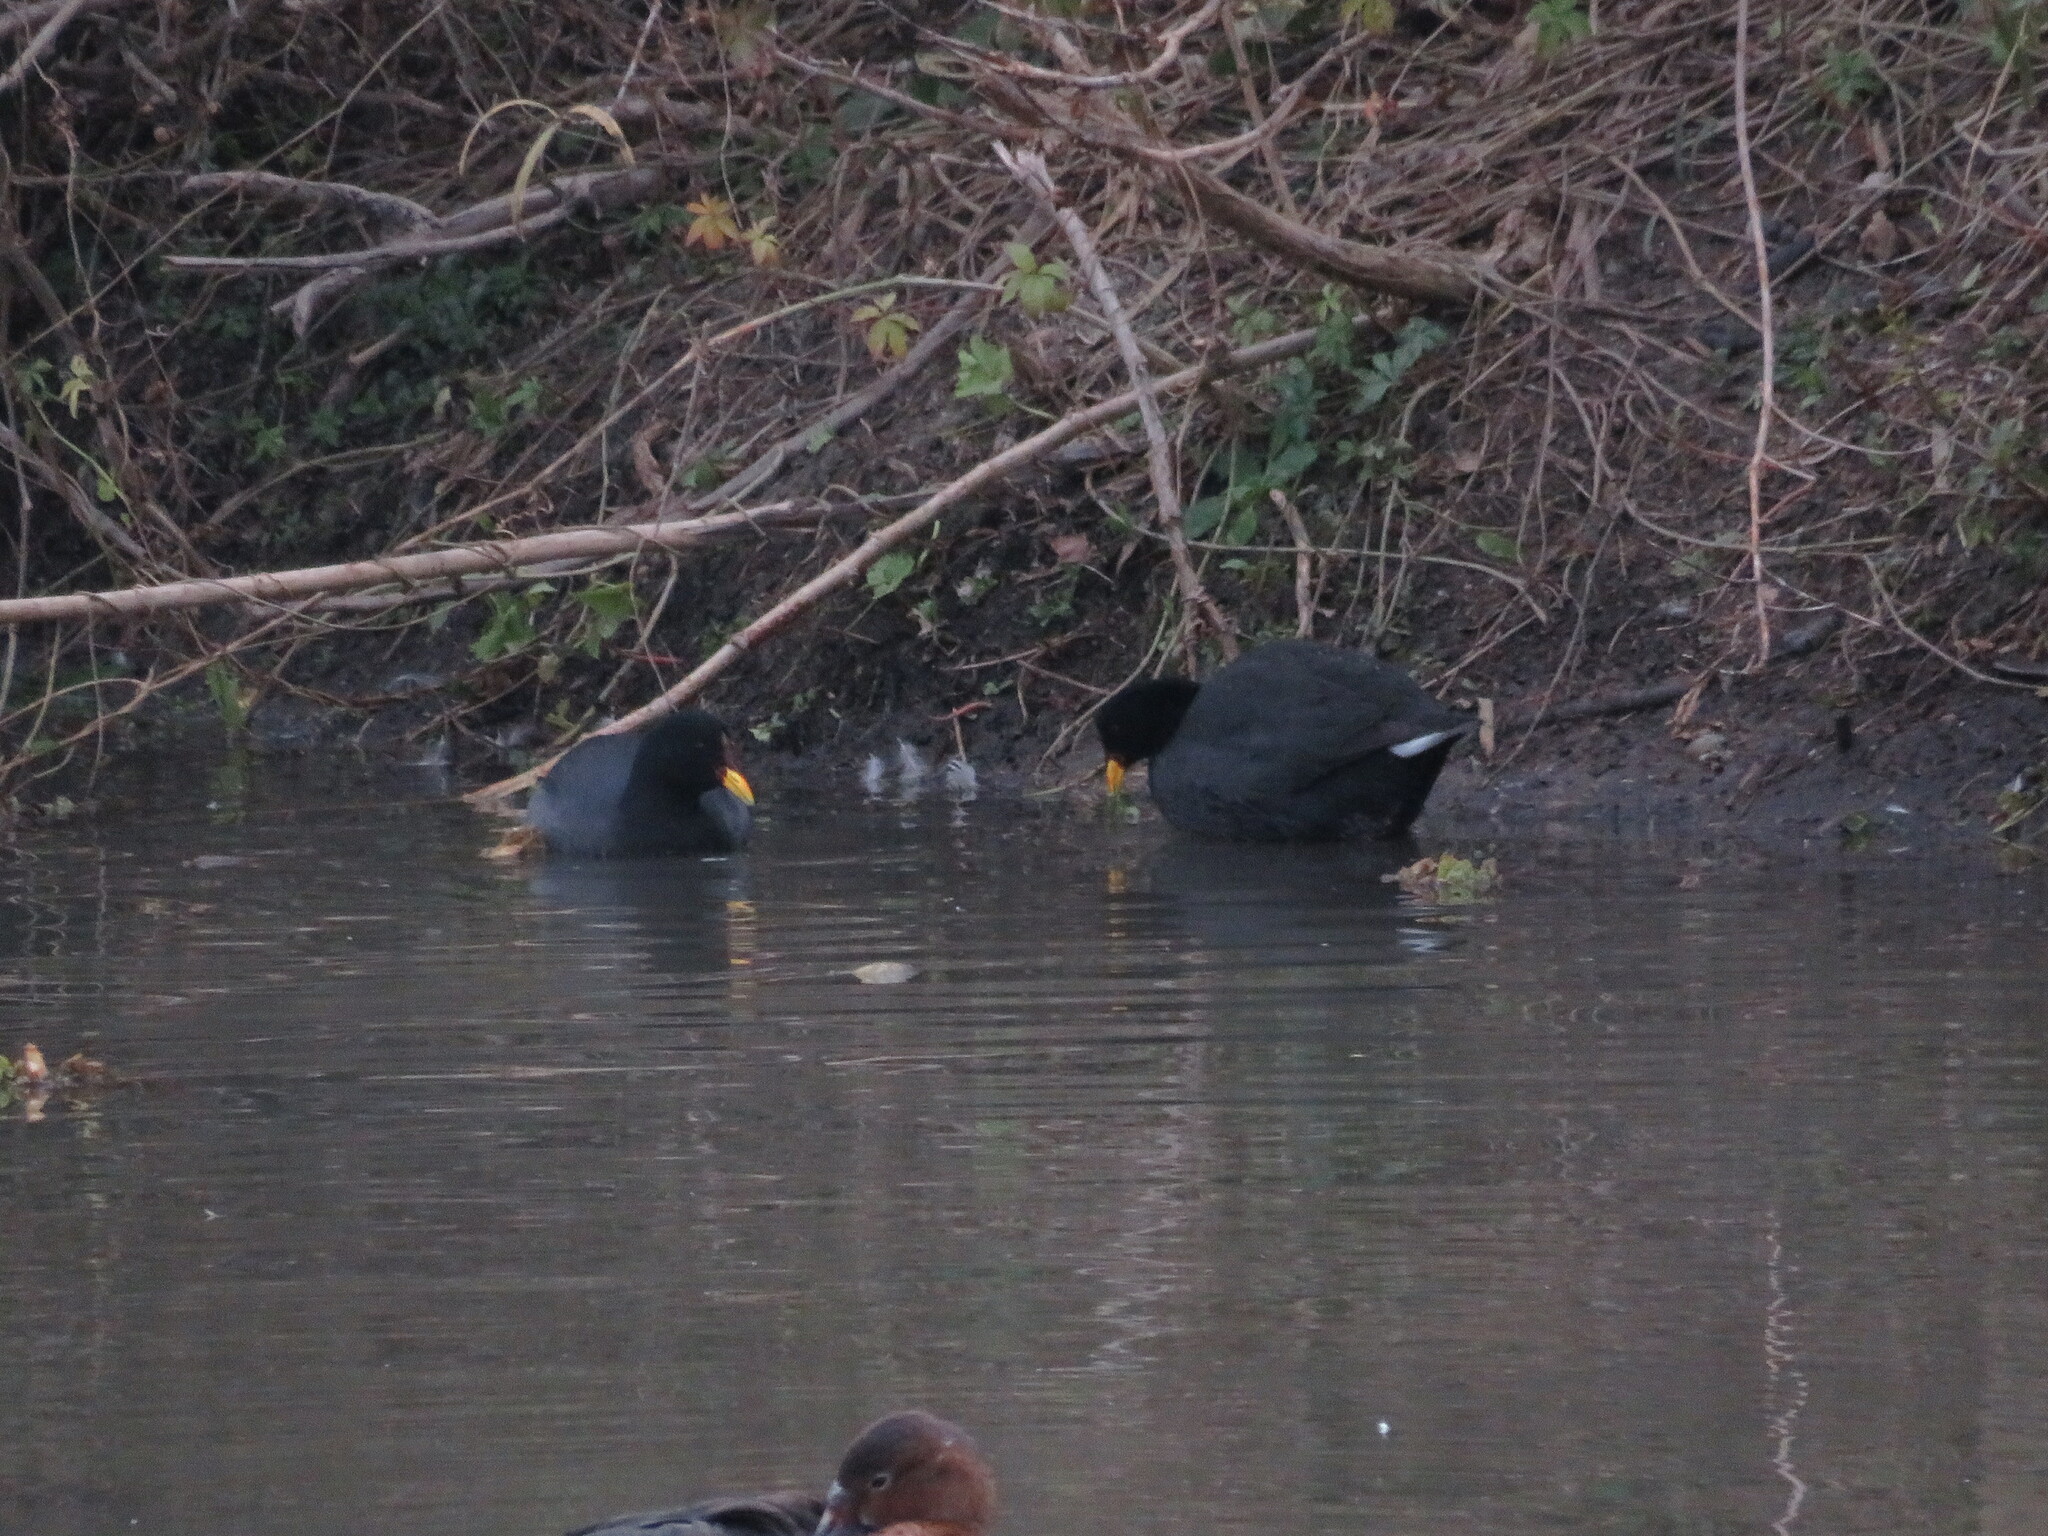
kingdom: Animalia
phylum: Chordata
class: Aves
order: Gruiformes
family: Rallidae
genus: Fulica
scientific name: Fulica rufifrons
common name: Red-fronted coot
